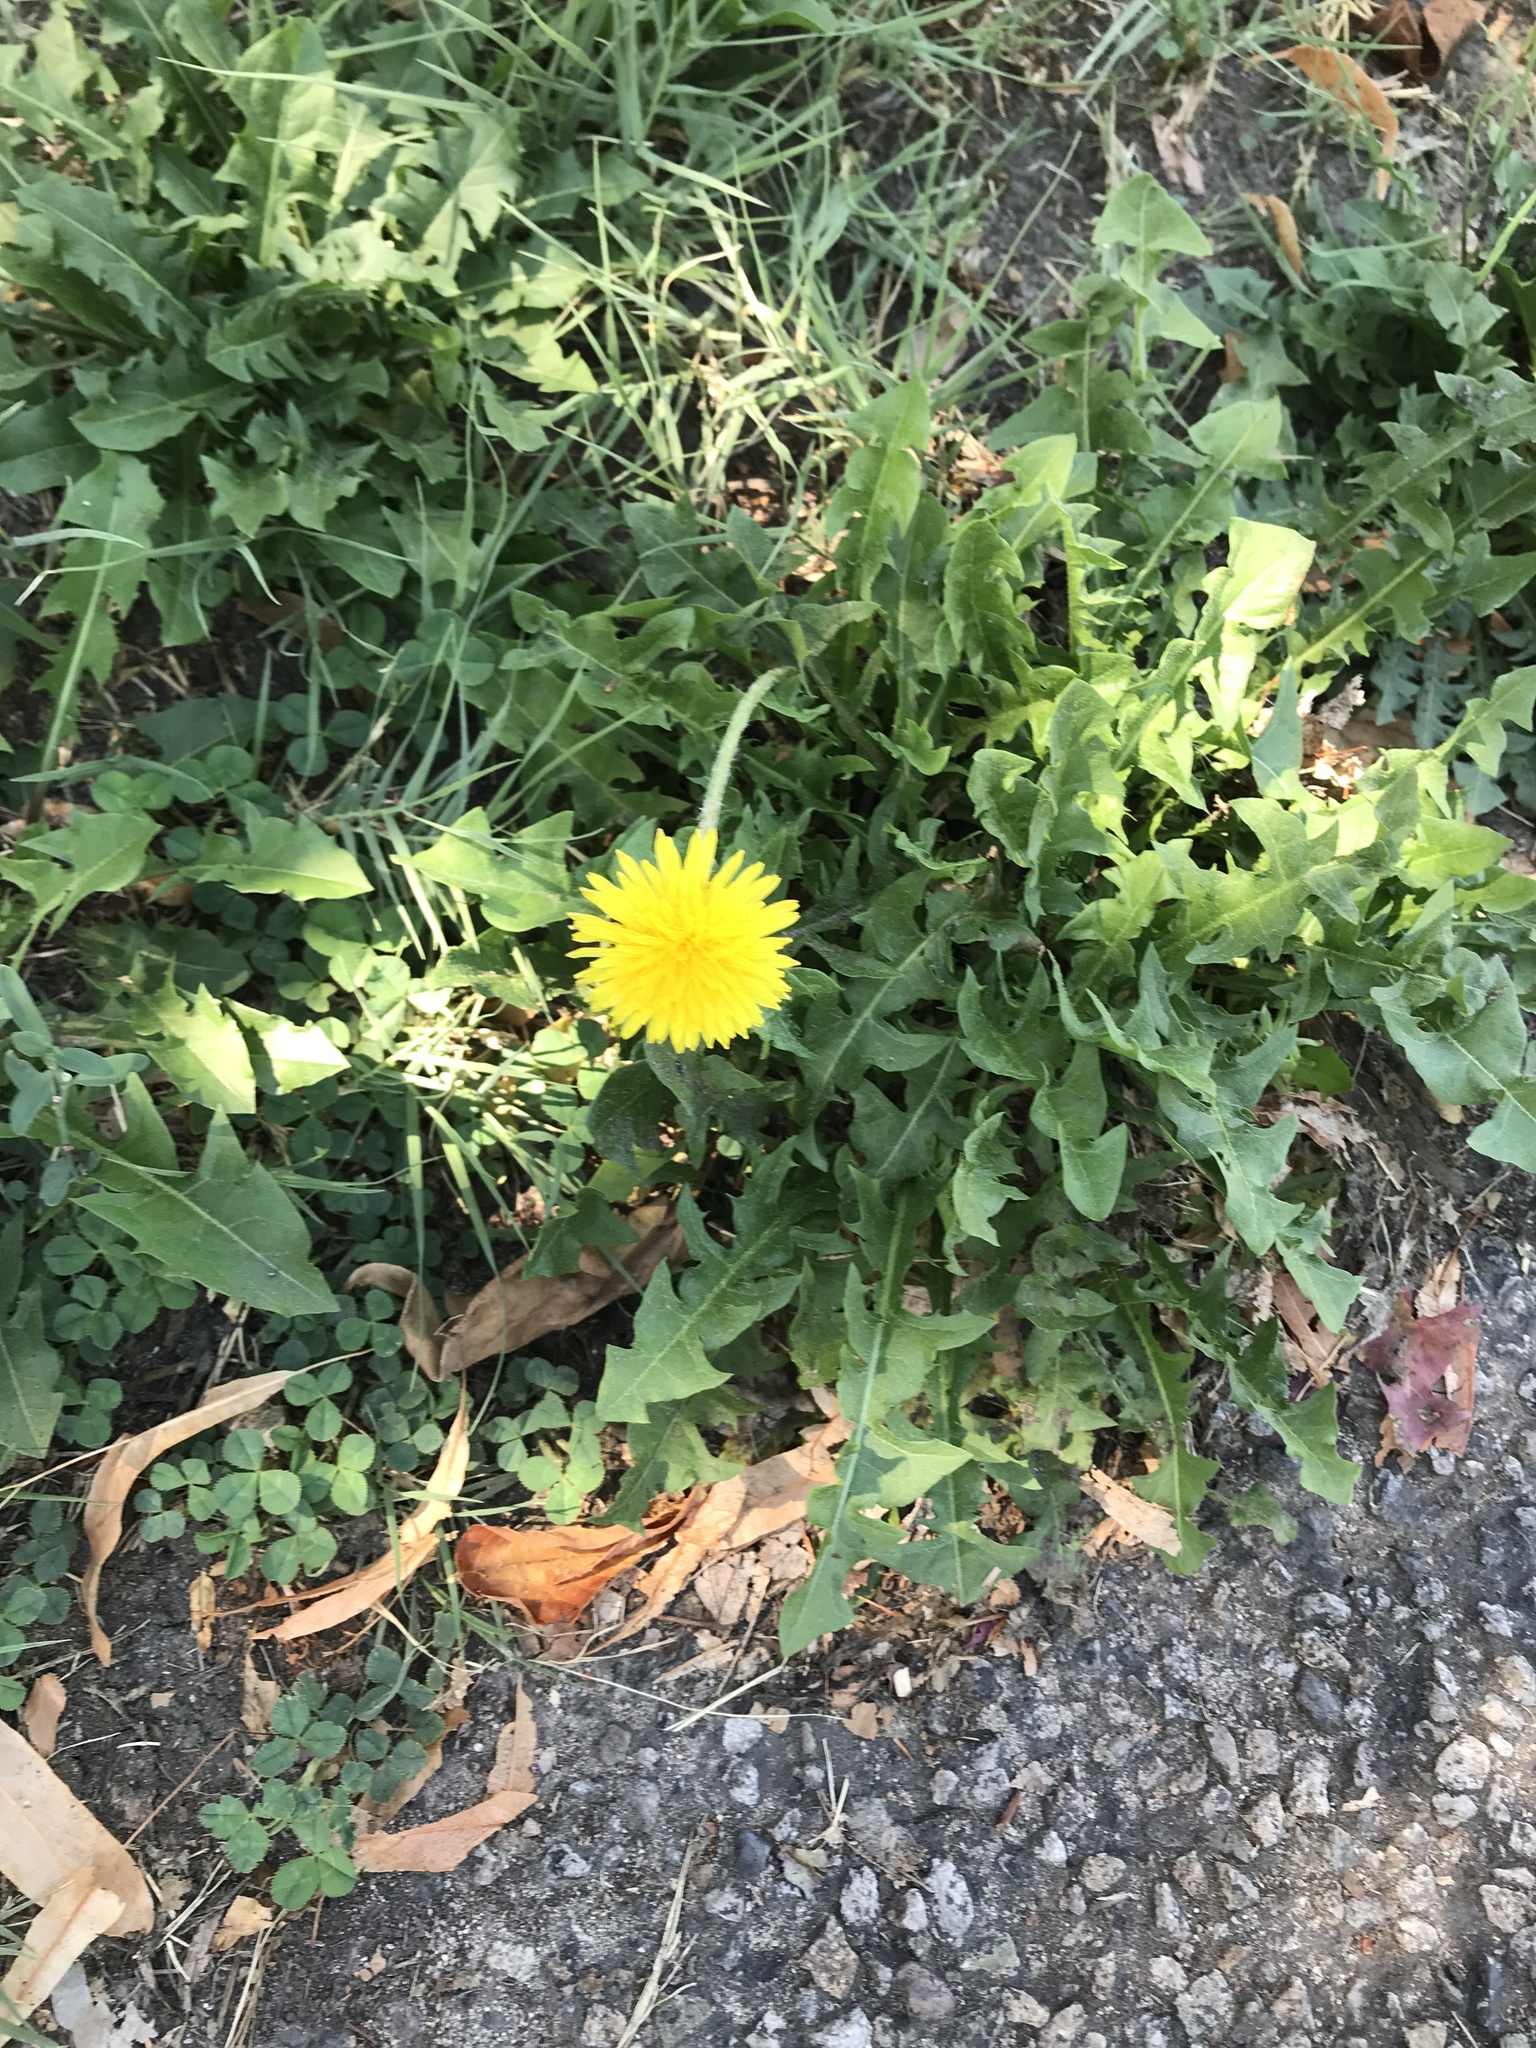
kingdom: Plantae
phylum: Tracheophyta
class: Magnoliopsida
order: Asterales
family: Asteraceae
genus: Taraxacum
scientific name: Taraxacum officinale
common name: Common dandelion
